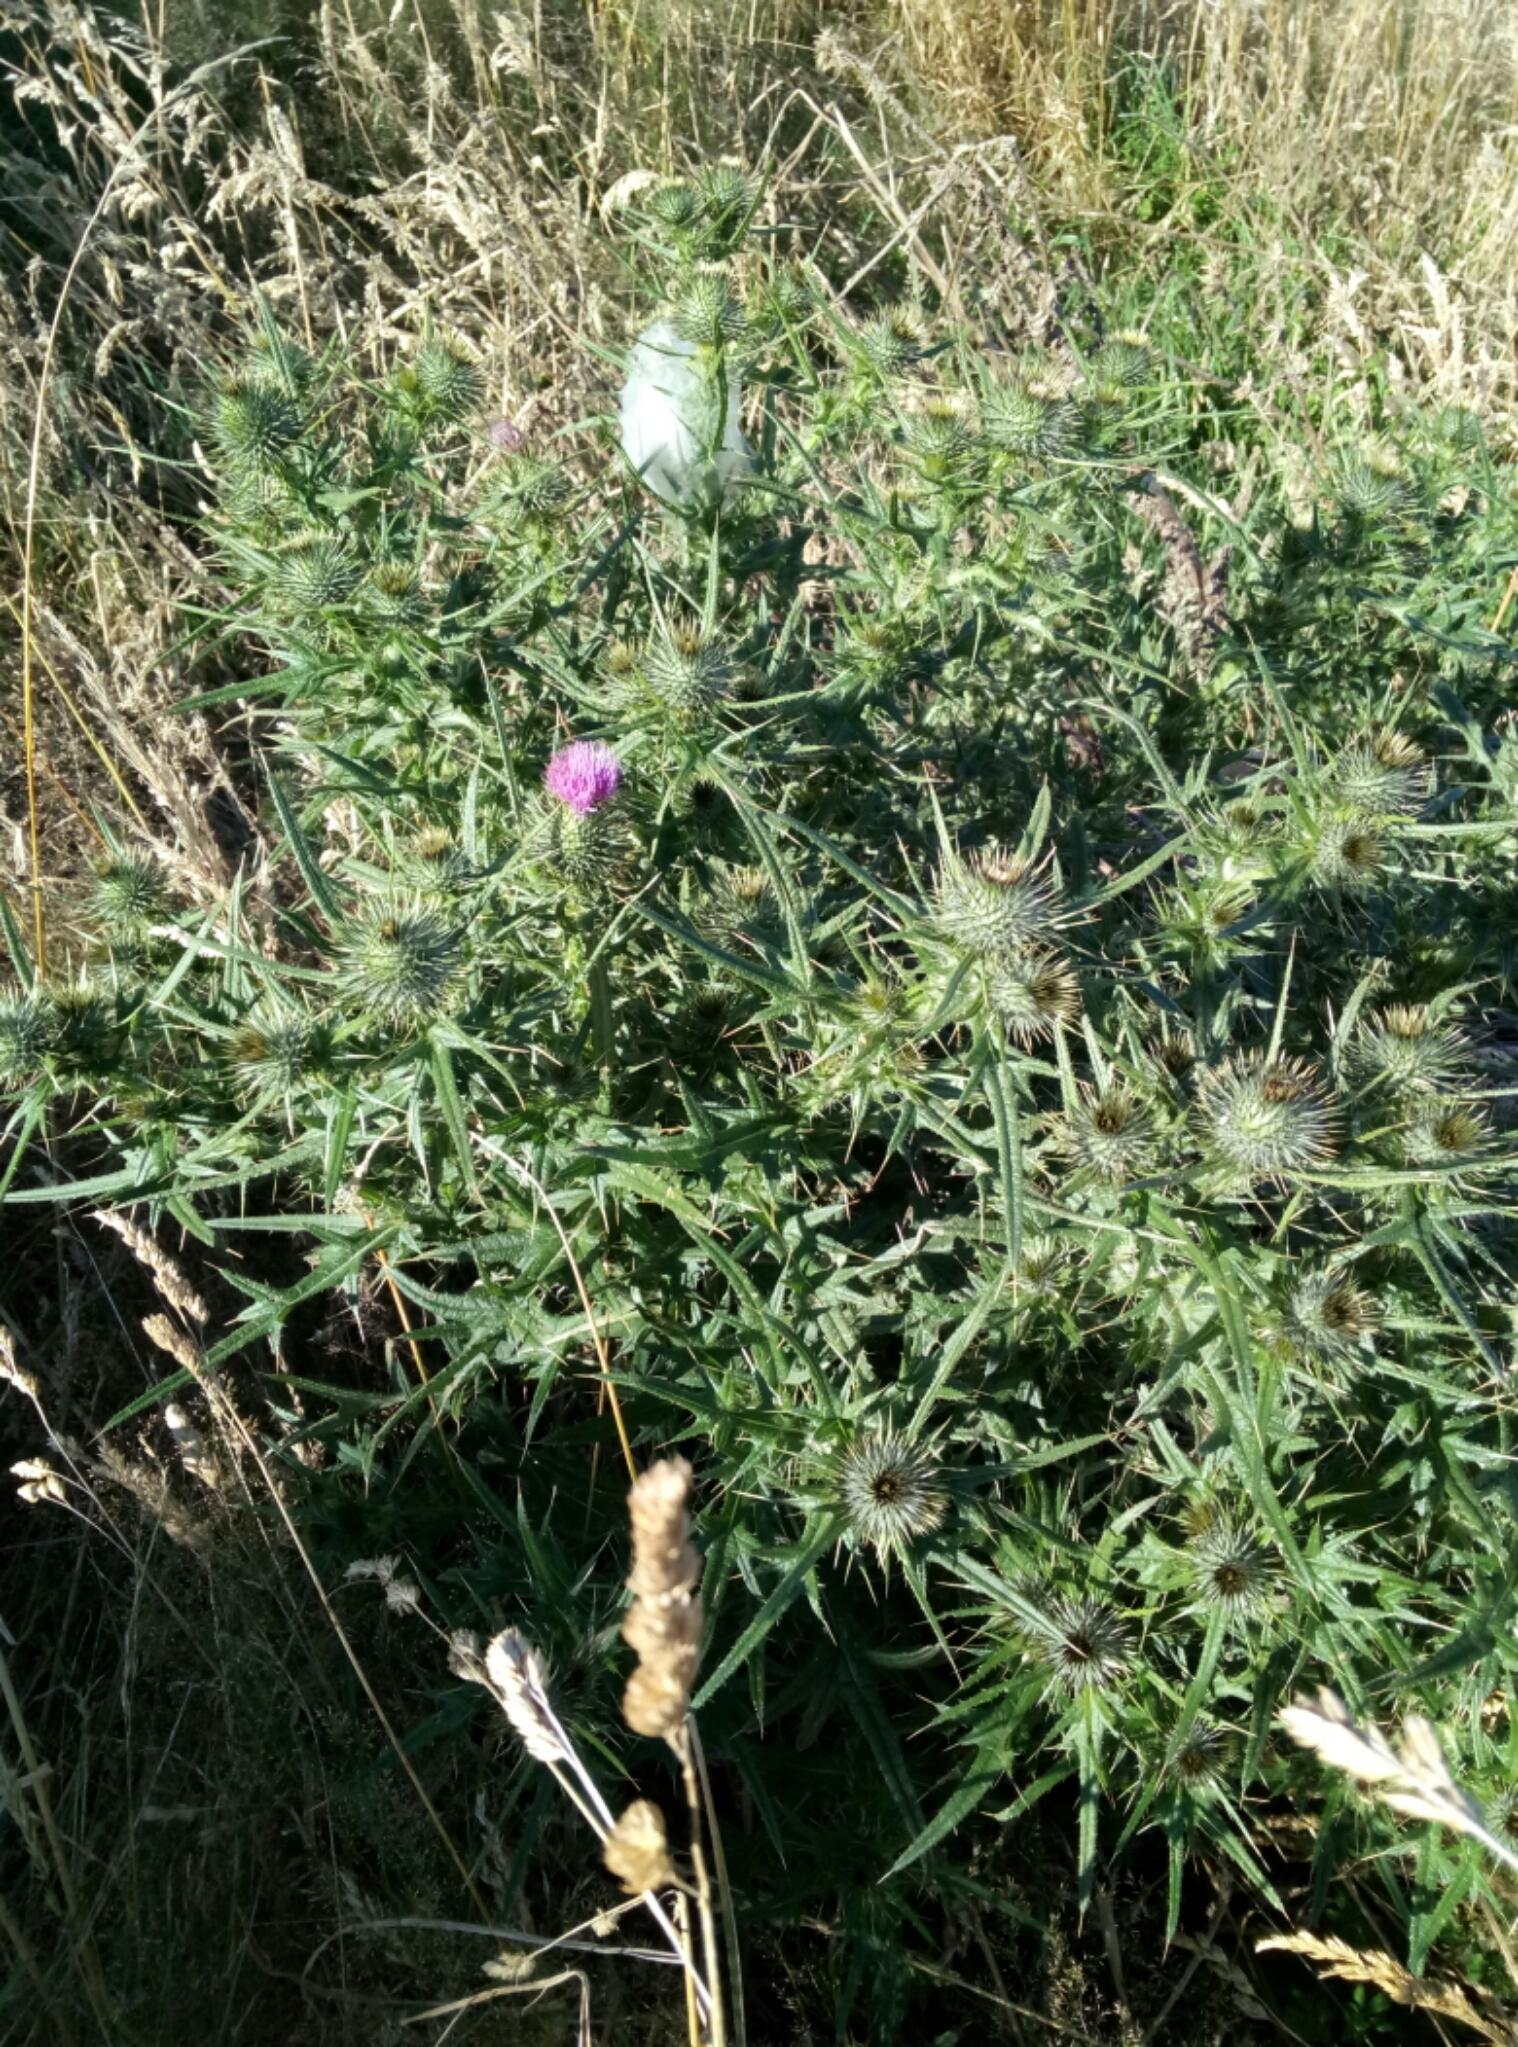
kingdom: Plantae
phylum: Tracheophyta
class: Magnoliopsida
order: Asterales
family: Asteraceae
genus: Cirsium
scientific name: Cirsium vulgare
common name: Bull thistle
